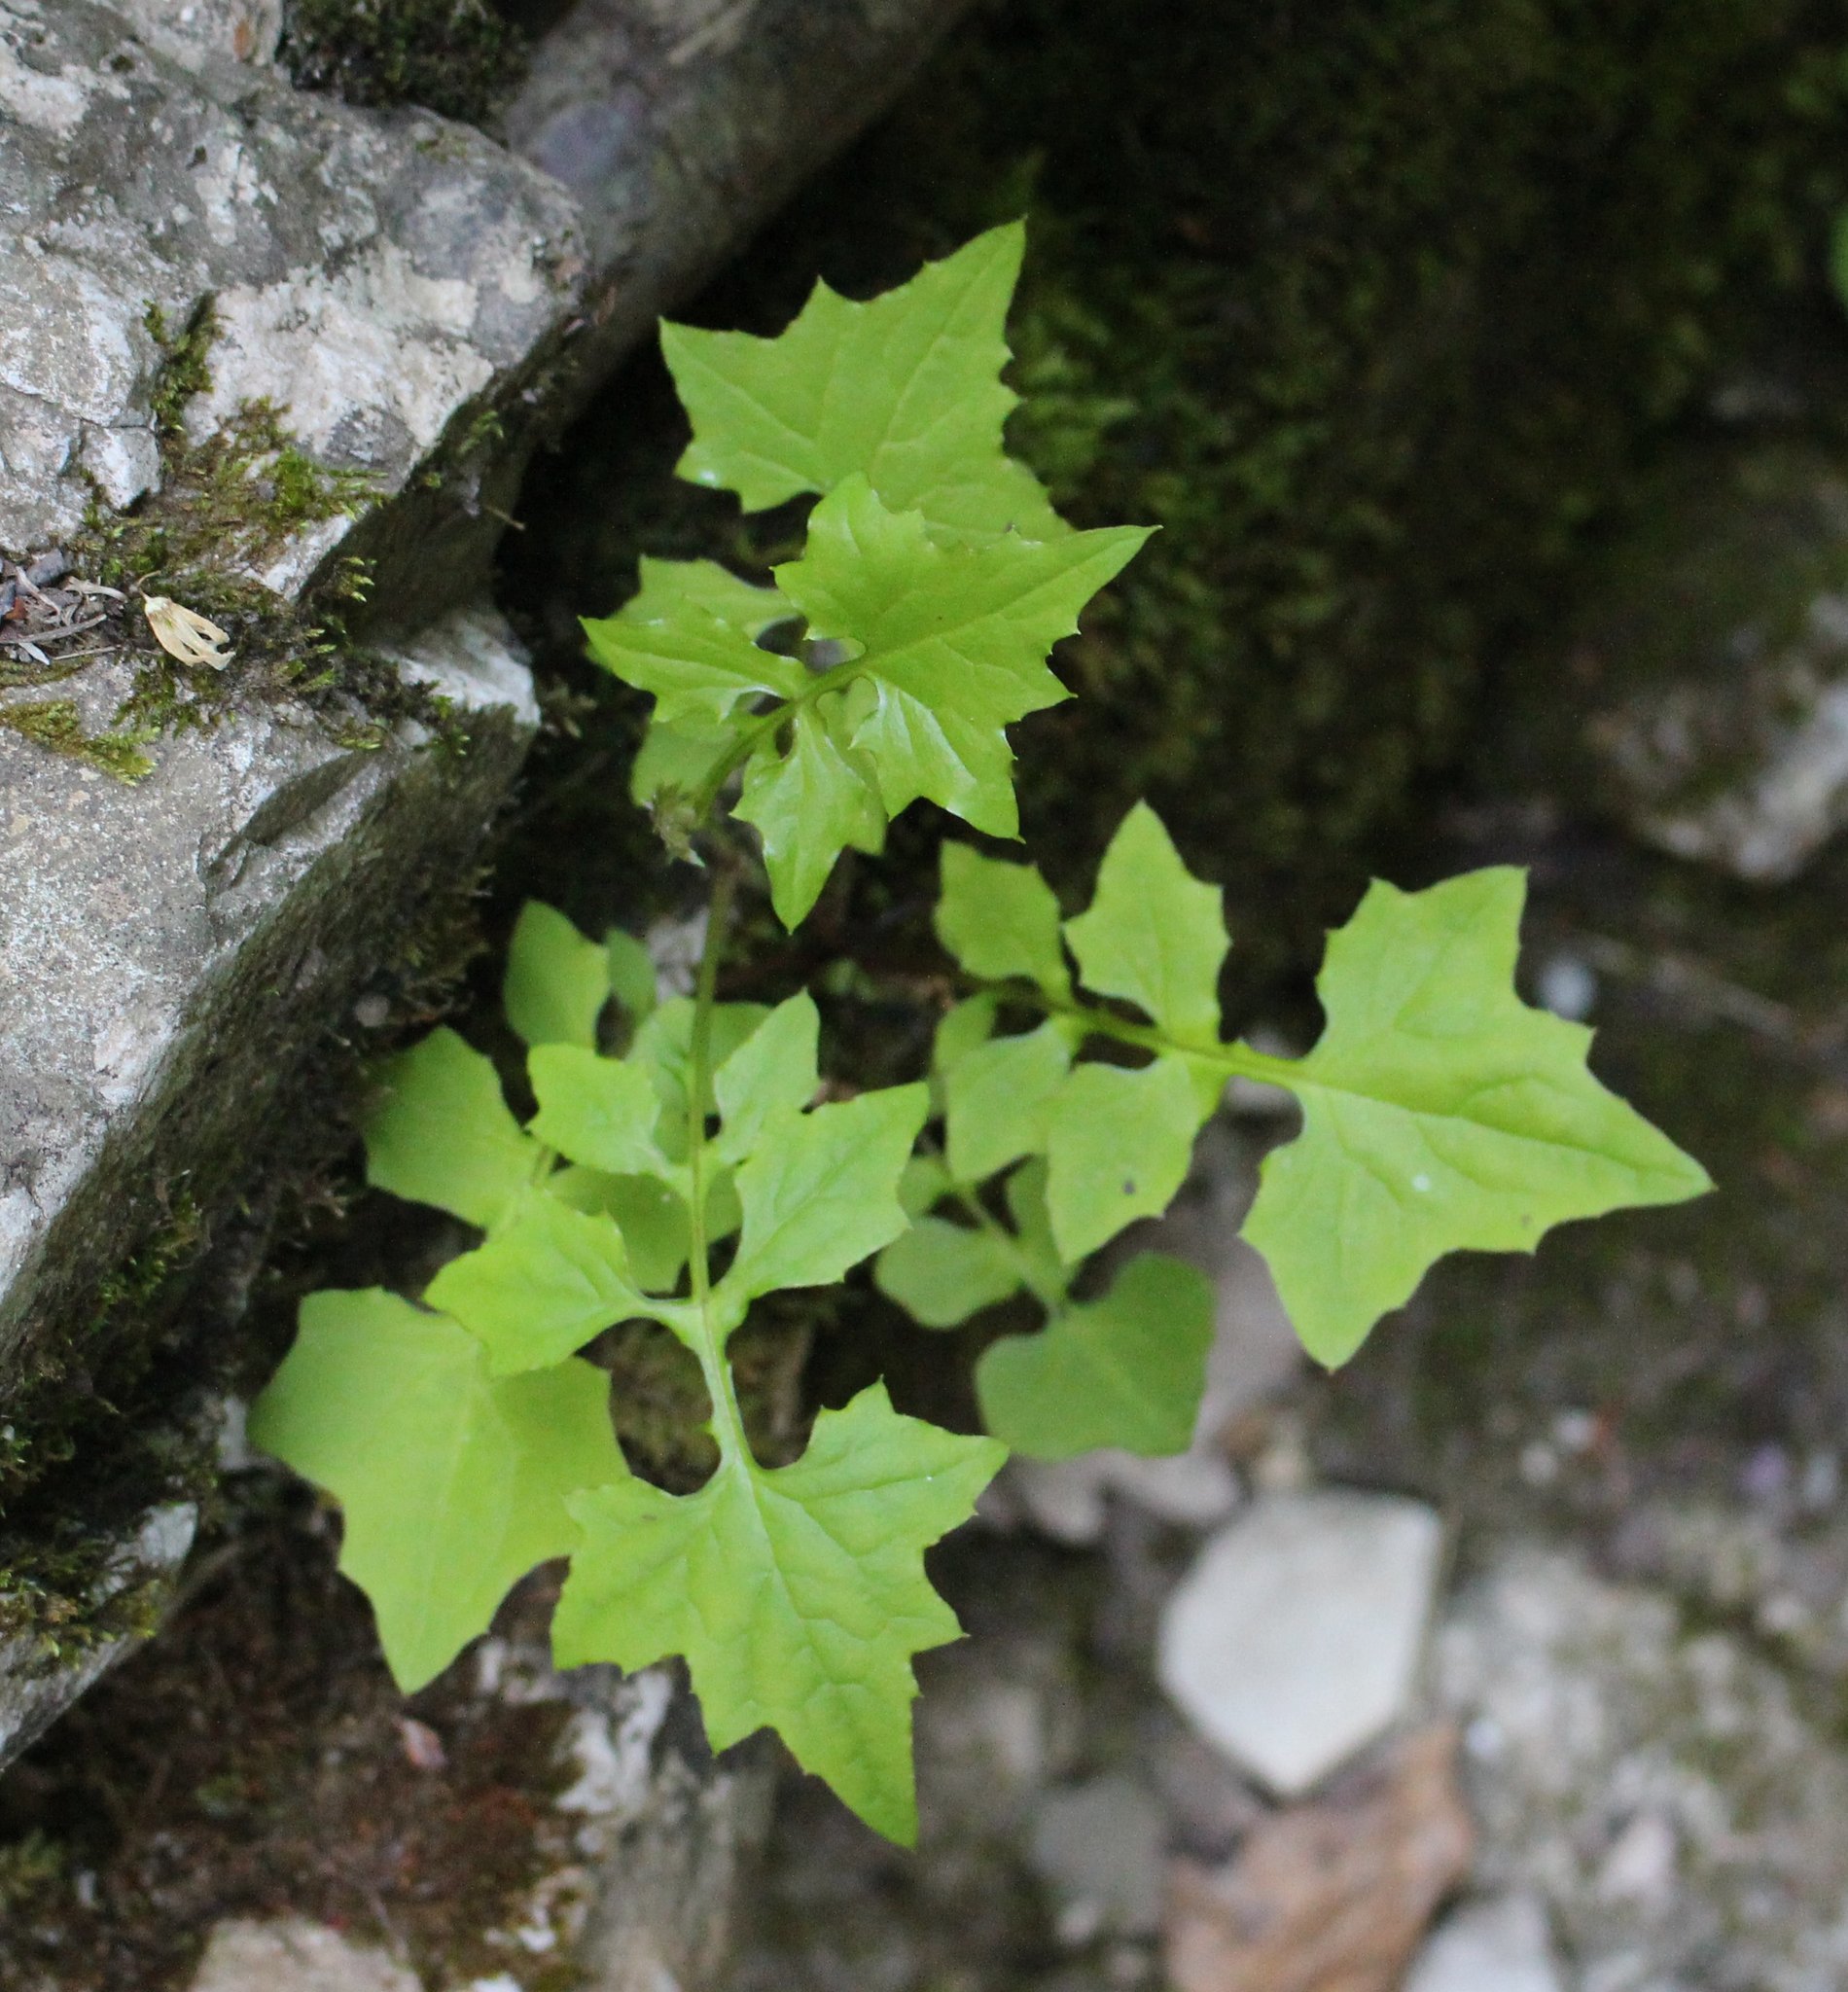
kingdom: Plantae
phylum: Tracheophyta
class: Magnoliopsida
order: Asterales
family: Asteraceae
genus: Mycelis
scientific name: Mycelis muralis
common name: Wall lettuce
